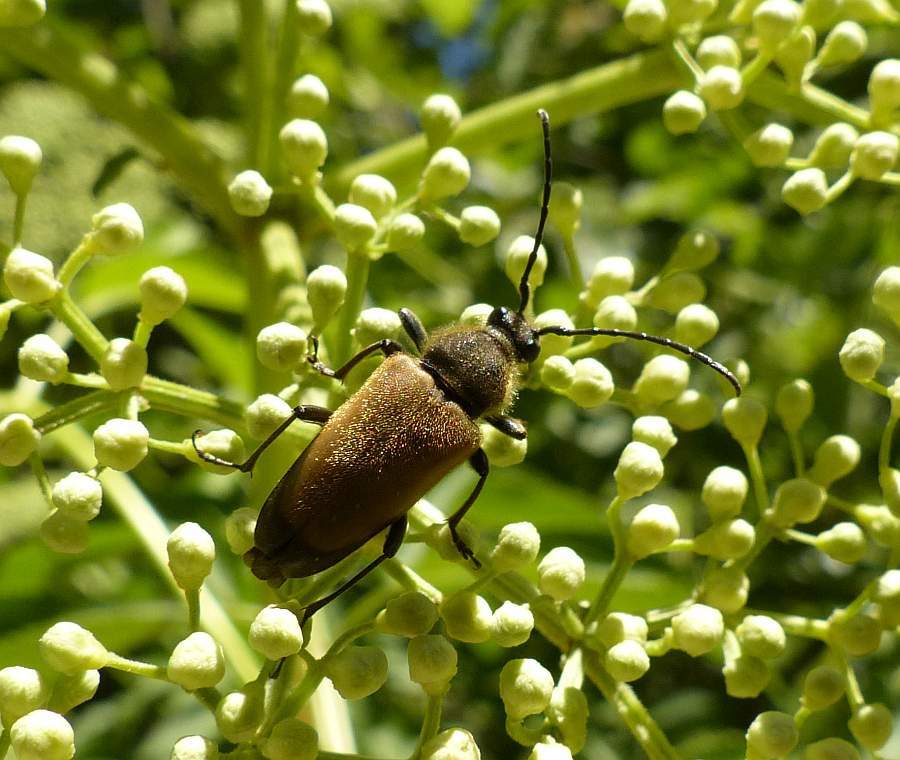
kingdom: Animalia
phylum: Arthropoda
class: Insecta
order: Coleoptera
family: Cerambycidae
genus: Trigonarthris
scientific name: Trigonarthris proxima
